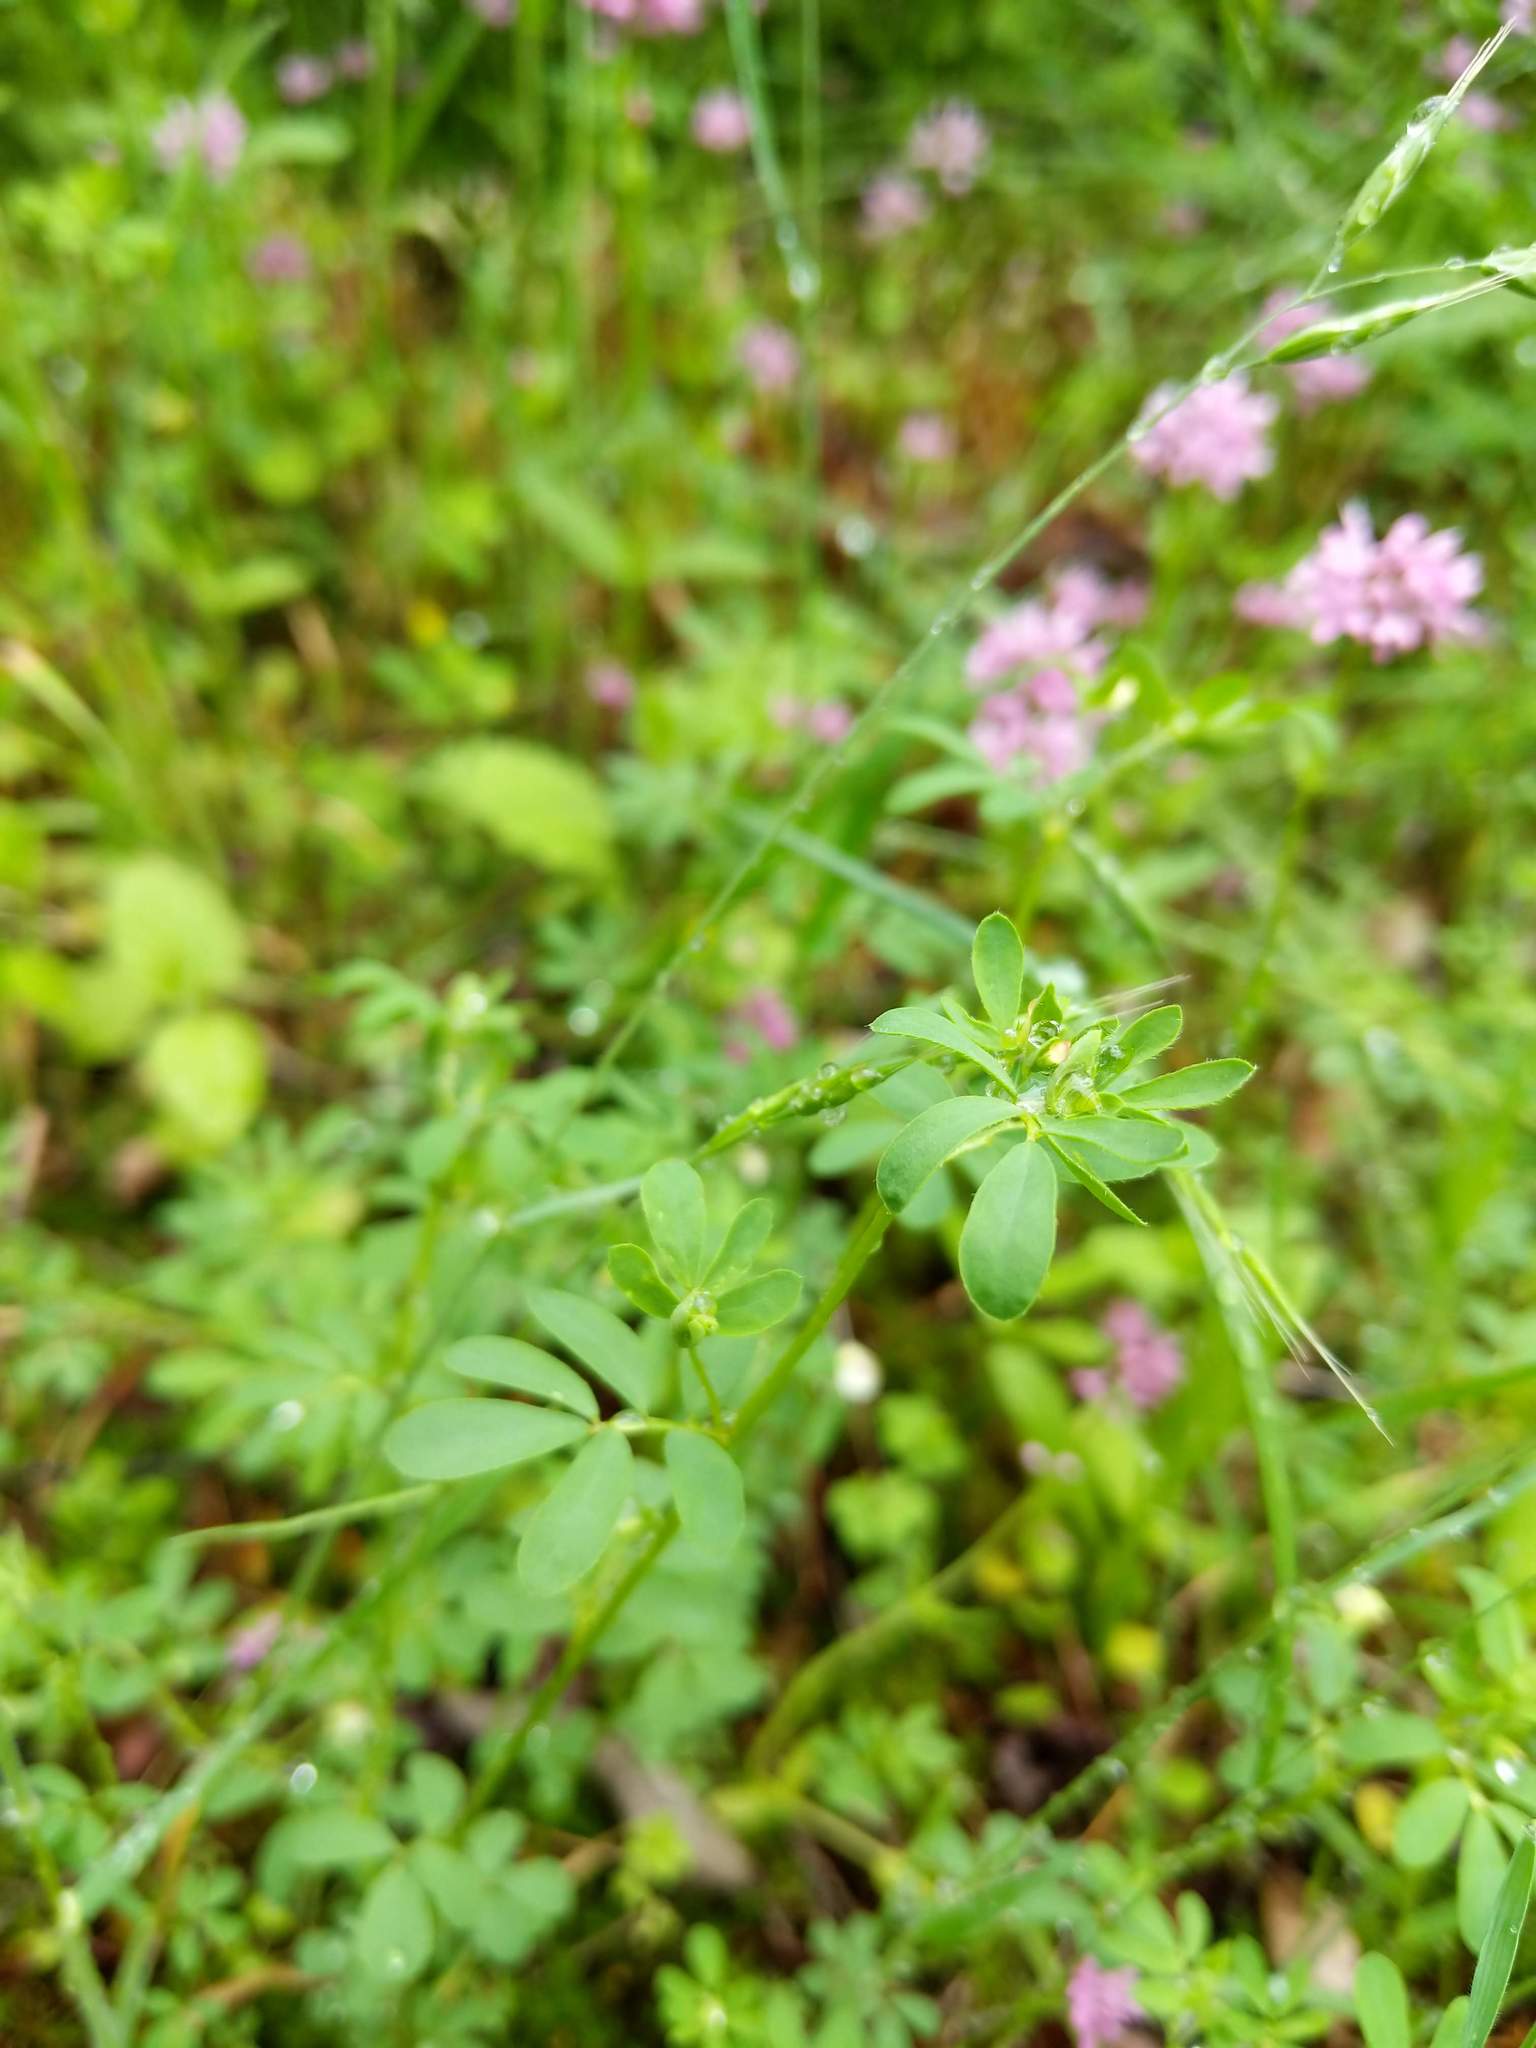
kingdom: Plantae
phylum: Tracheophyta
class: Magnoliopsida
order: Fabales
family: Fabaceae
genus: Acmispon
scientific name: Acmispon parviflorus
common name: Desert deer-vetch
